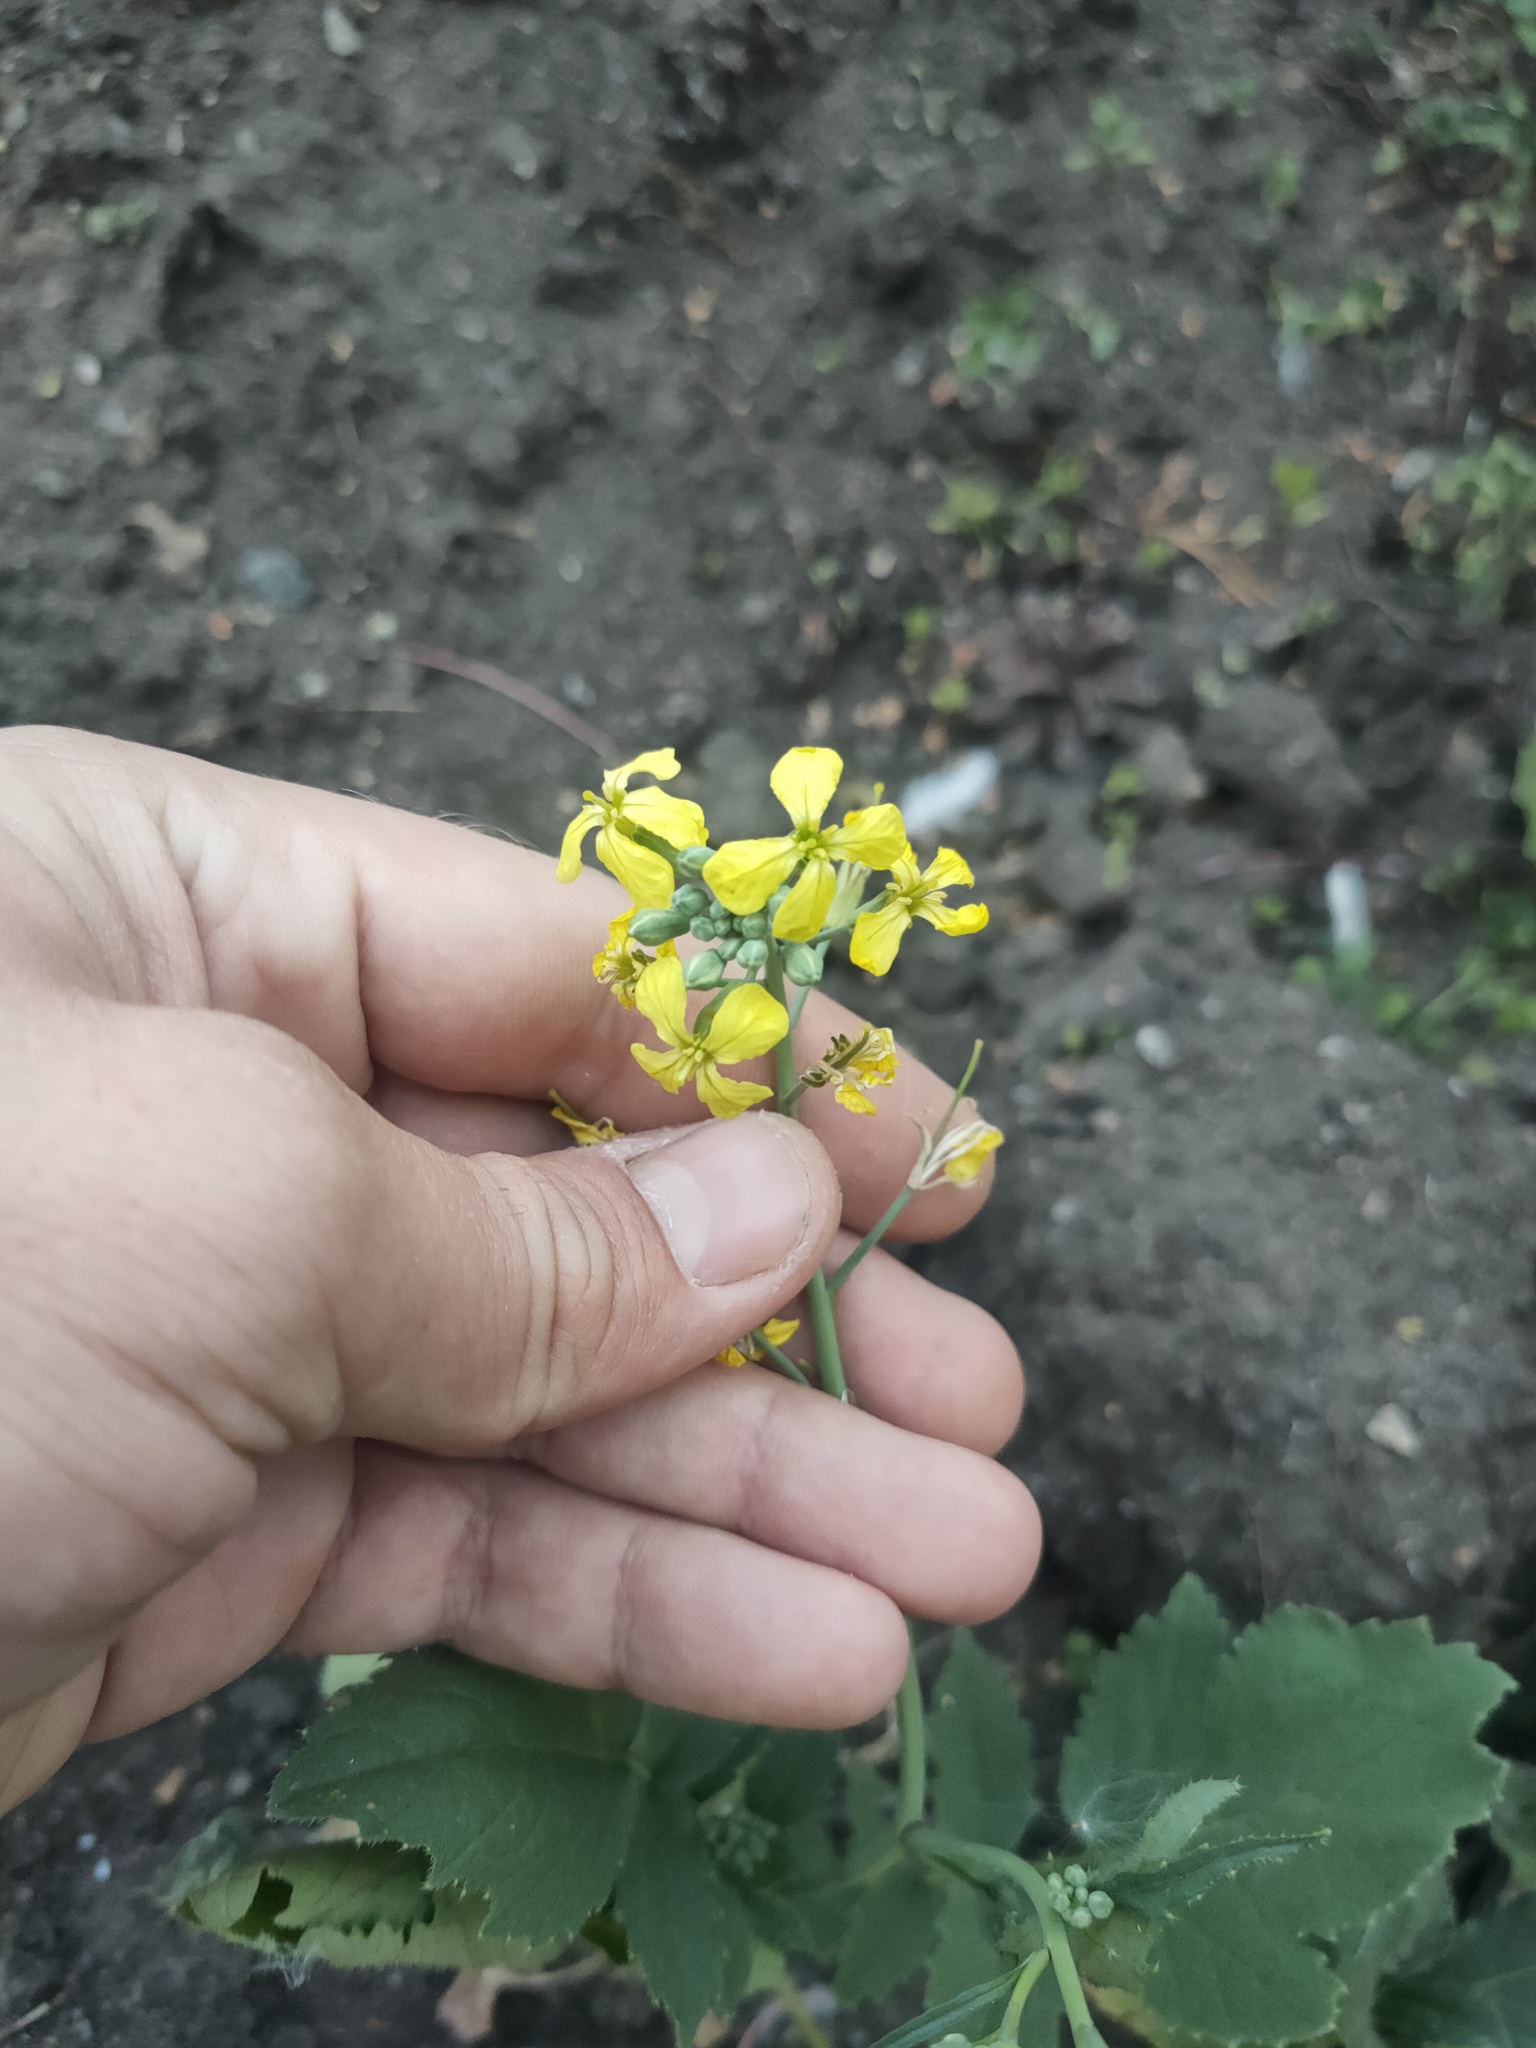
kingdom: Plantae
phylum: Tracheophyta
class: Magnoliopsida
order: Brassicales
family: Brassicaceae
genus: Raphanus
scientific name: Raphanus raphanistrum
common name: Wild radish
